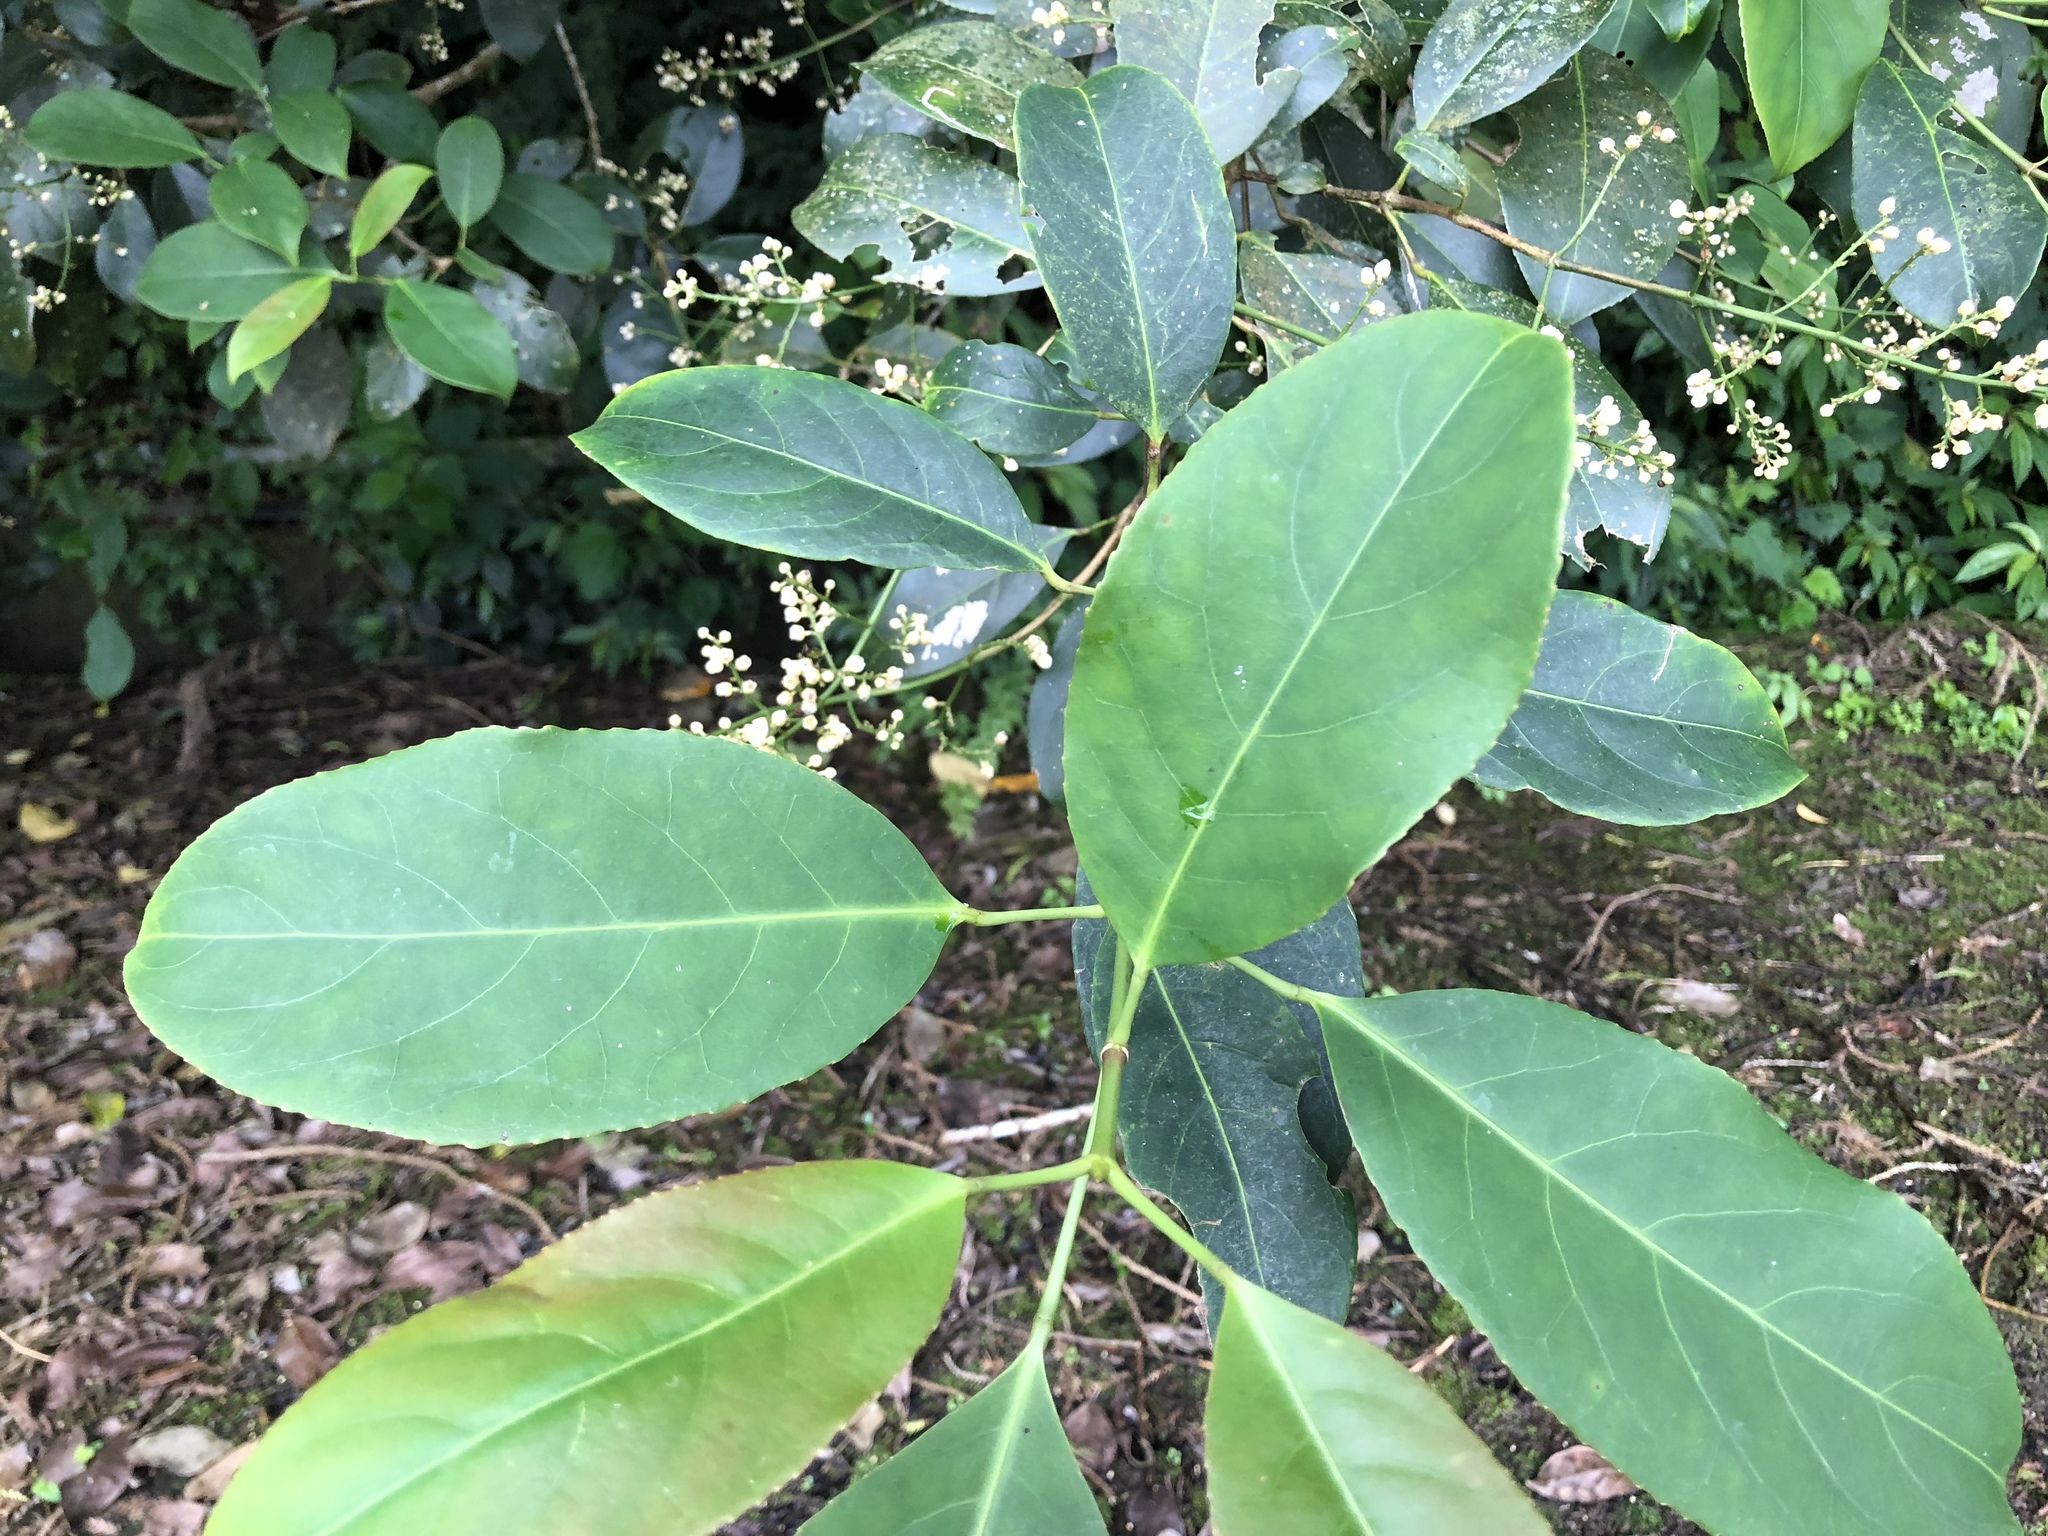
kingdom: Plantae
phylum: Tracheophyta
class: Magnoliopsida
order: Crossosomatales
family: Staphyleaceae
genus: Turpinia
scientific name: Turpinia formosana
